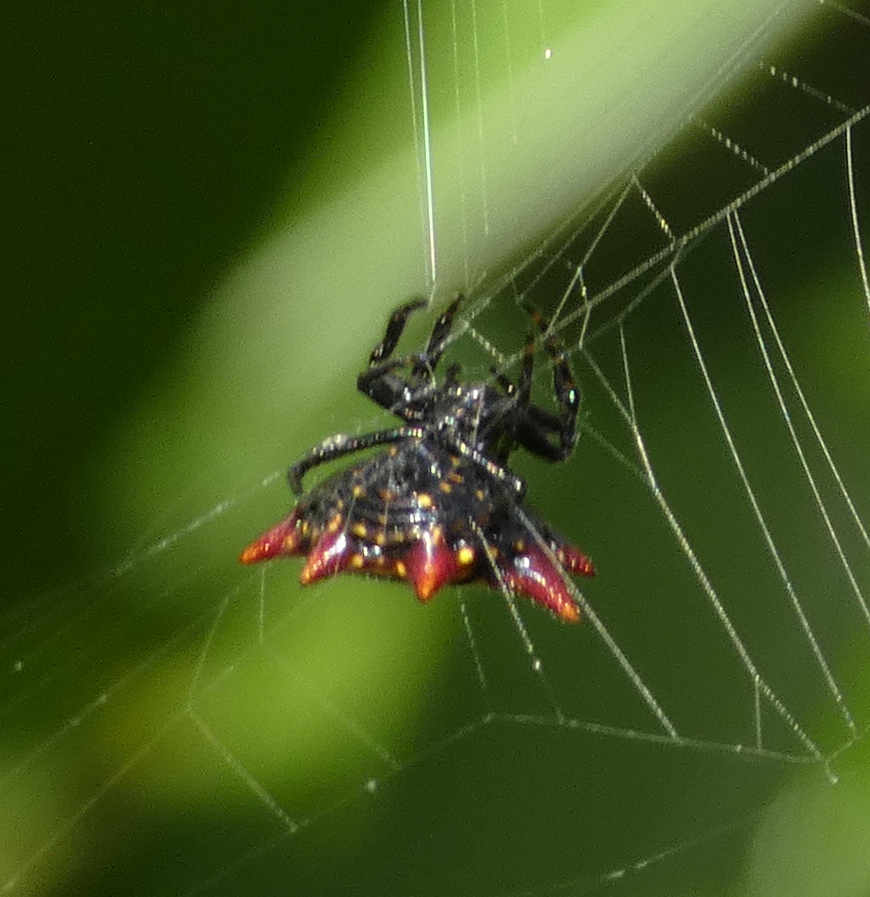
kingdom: Animalia
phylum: Arthropoda
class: Arachnida
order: Araneae
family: Araneidae
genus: Gasteracantha
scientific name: Gasteracantha cancriformis
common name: Orb weavers
